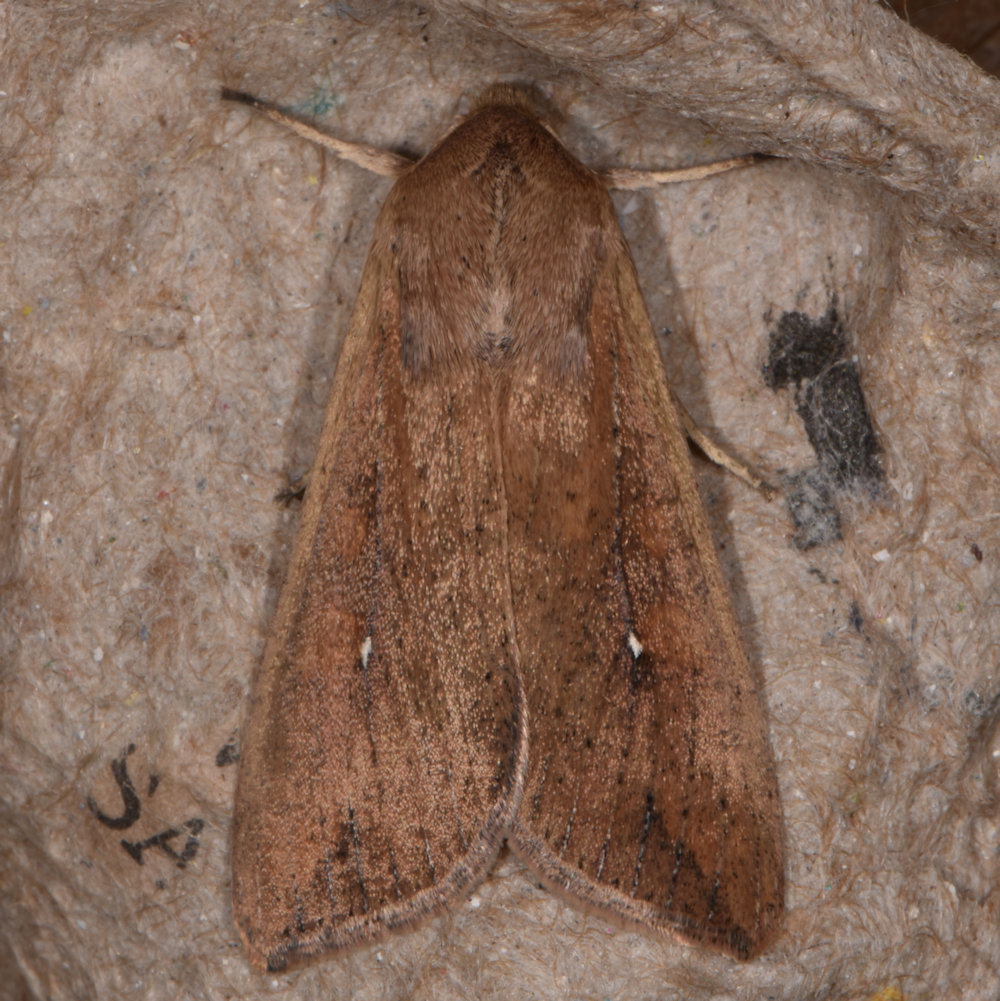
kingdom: Animalia
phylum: Arthropoda
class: Insecta
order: Lepidoptera
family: Noctuidae
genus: Mythimna
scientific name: Mythimna unipuncta
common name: White-speck
